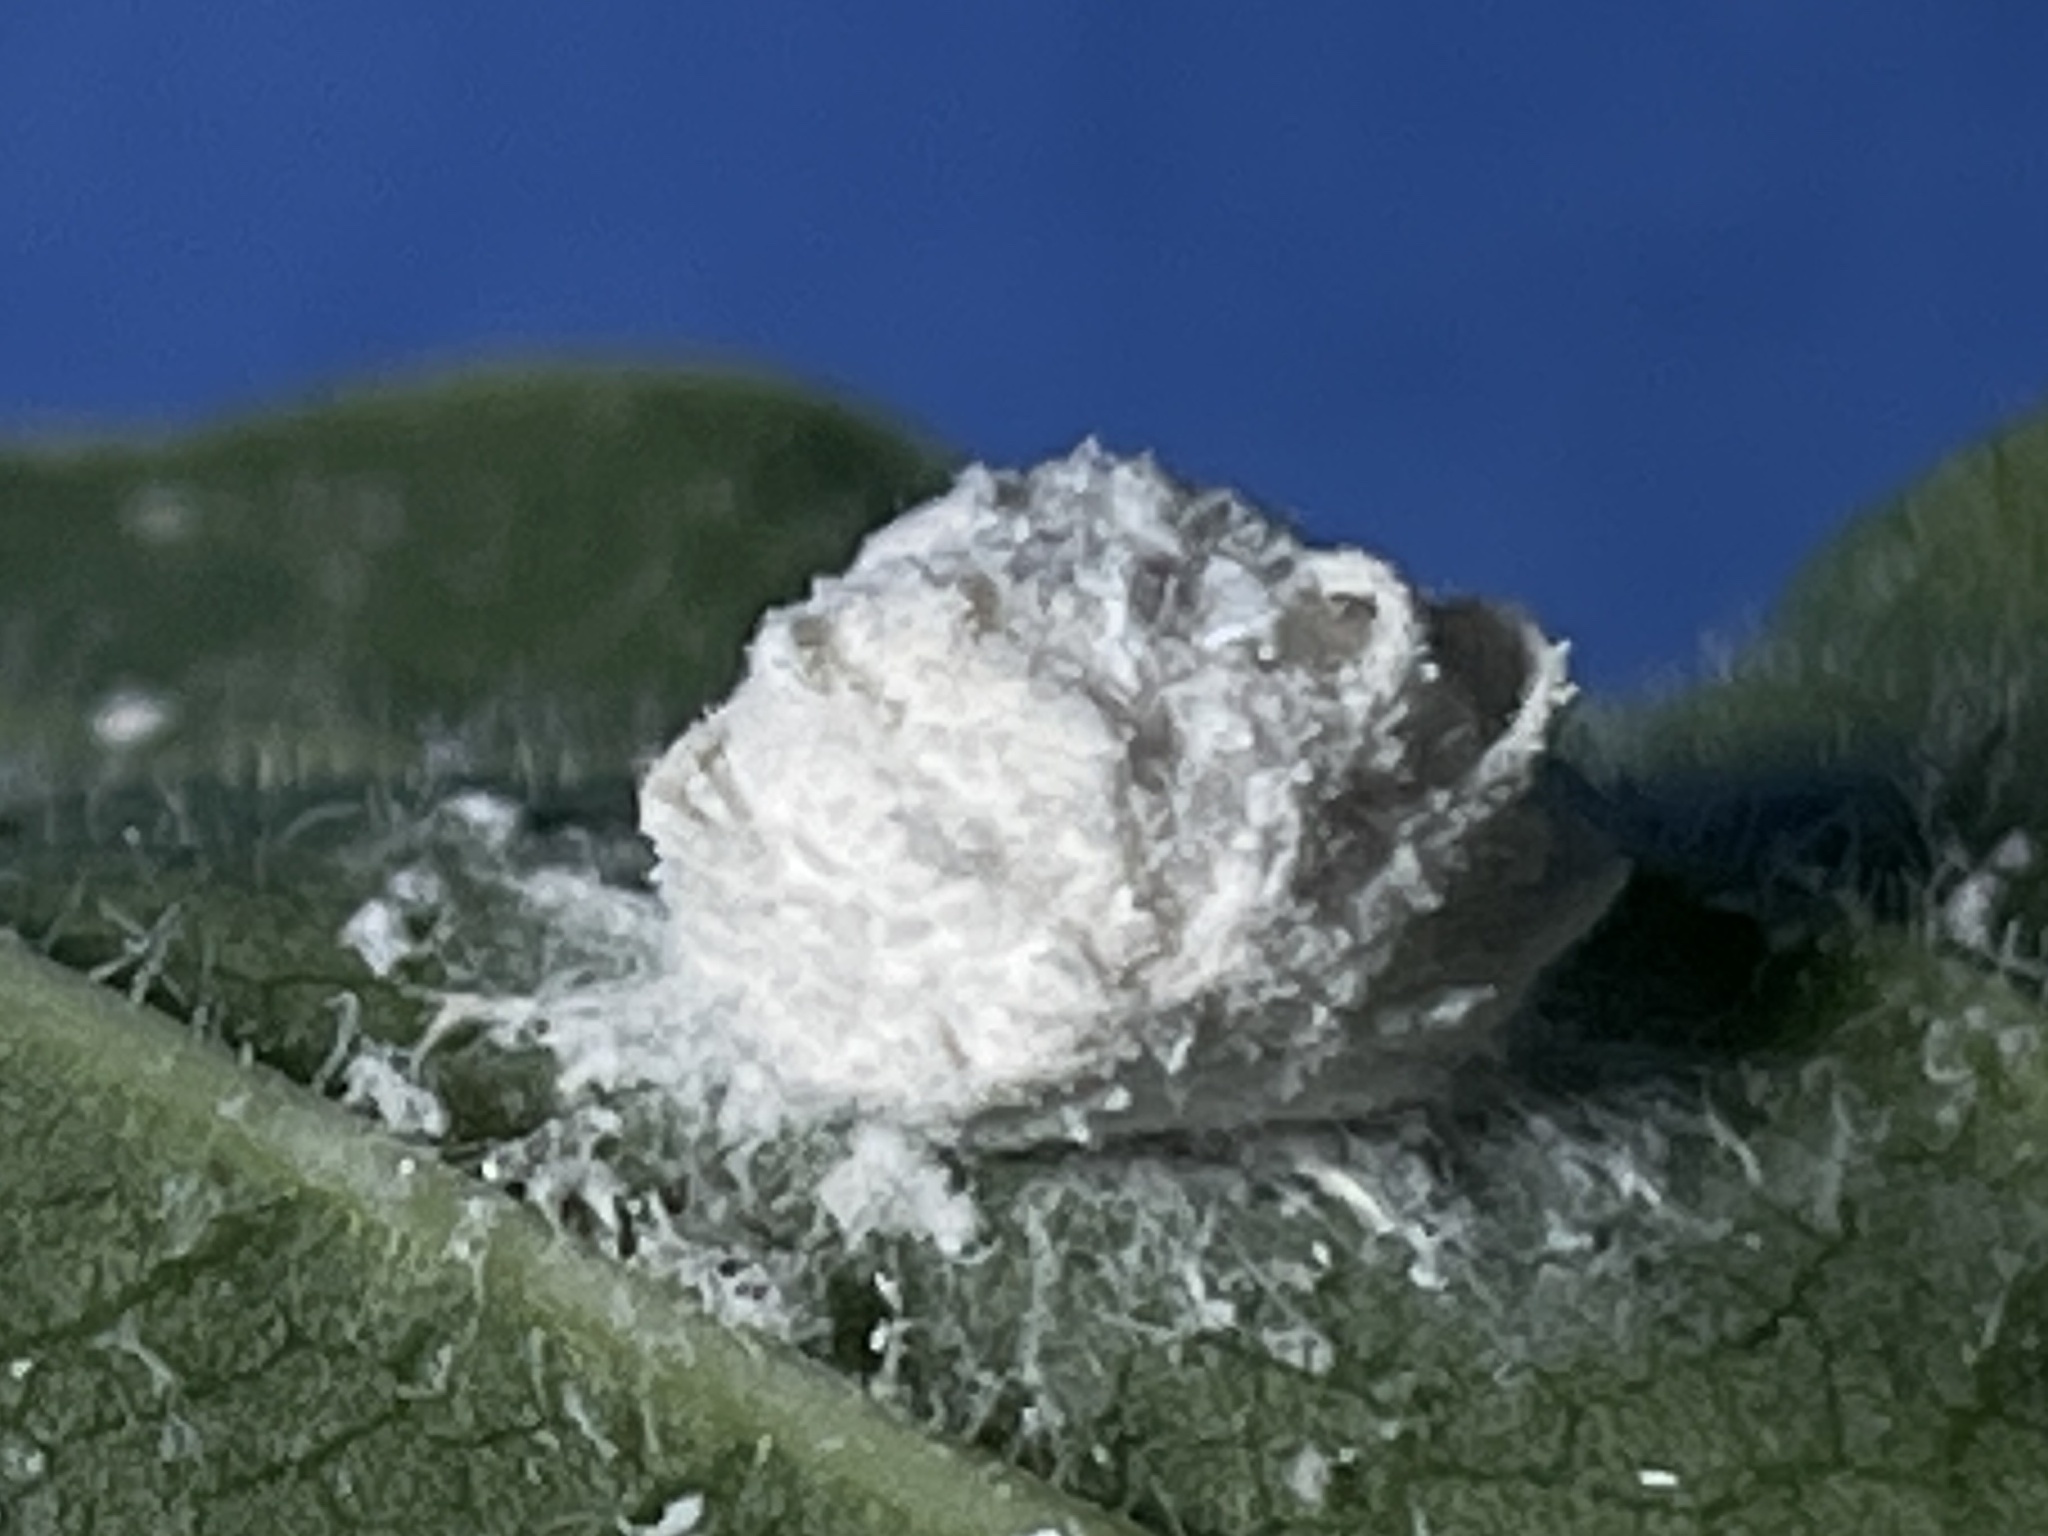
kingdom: Animalia
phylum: Arthropoda
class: Insecta
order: Lepidoptera
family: Epipyropidae
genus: Fulgoraecia
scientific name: Fulgoraecia exigua
